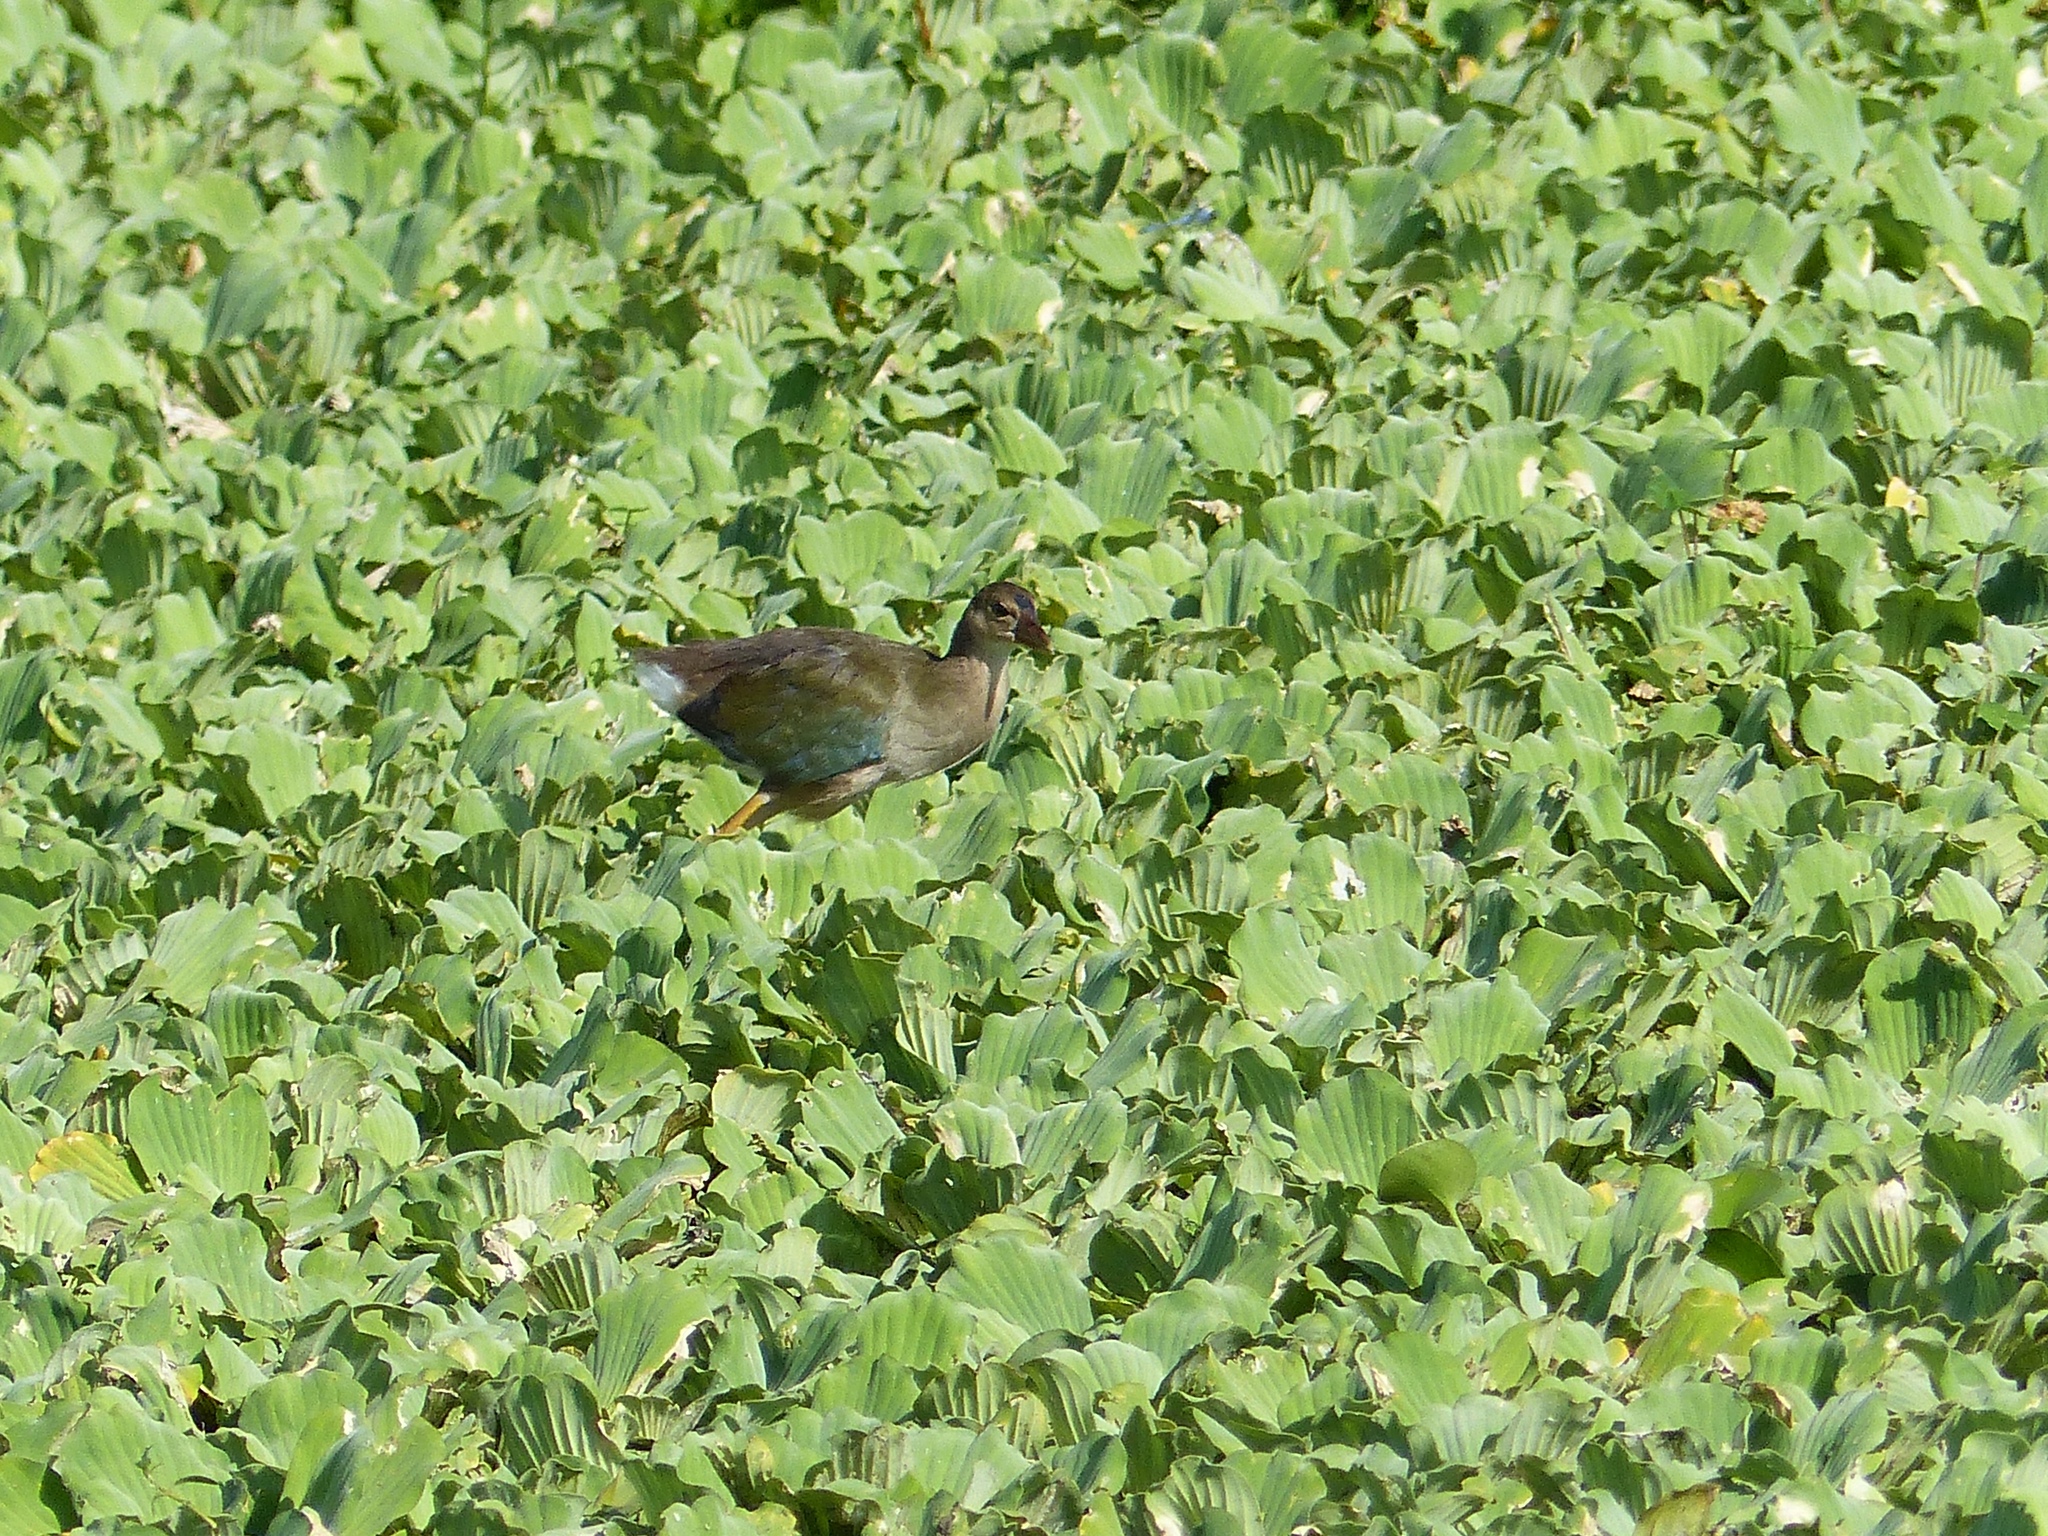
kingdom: Animalia
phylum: Chordata
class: Aves
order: Gruiformes
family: Rallidae
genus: Porphyrio
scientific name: Porphyrio martinica
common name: Purple gallinule
